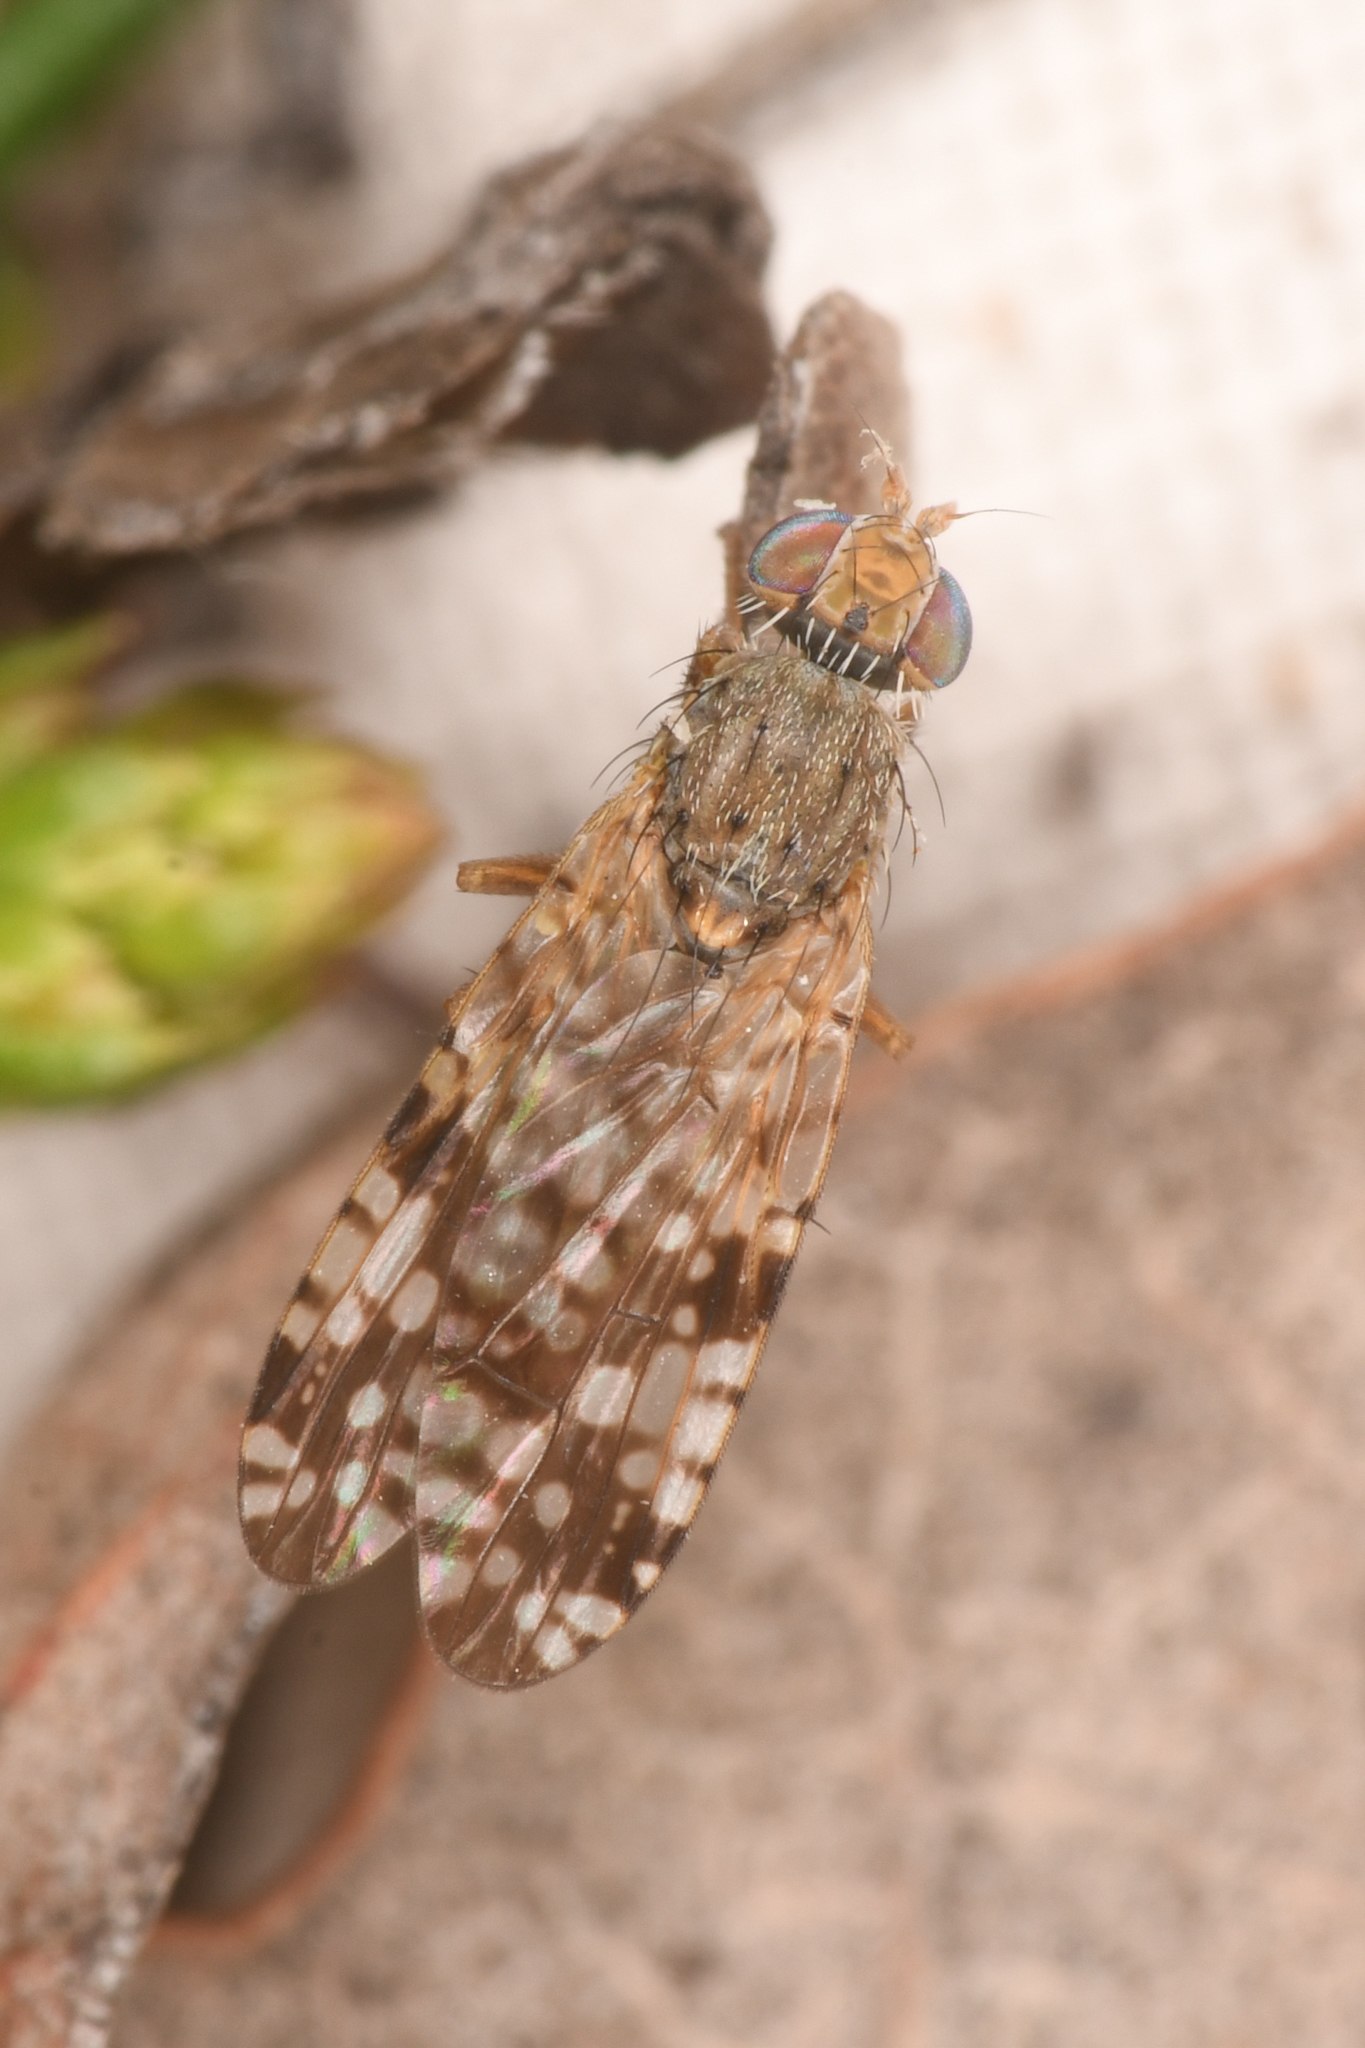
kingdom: Animalia
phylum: Arthropoda
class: Insecta
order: Diptera
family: Tephritidae
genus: Neotephritis
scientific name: Neotephritis finalis
